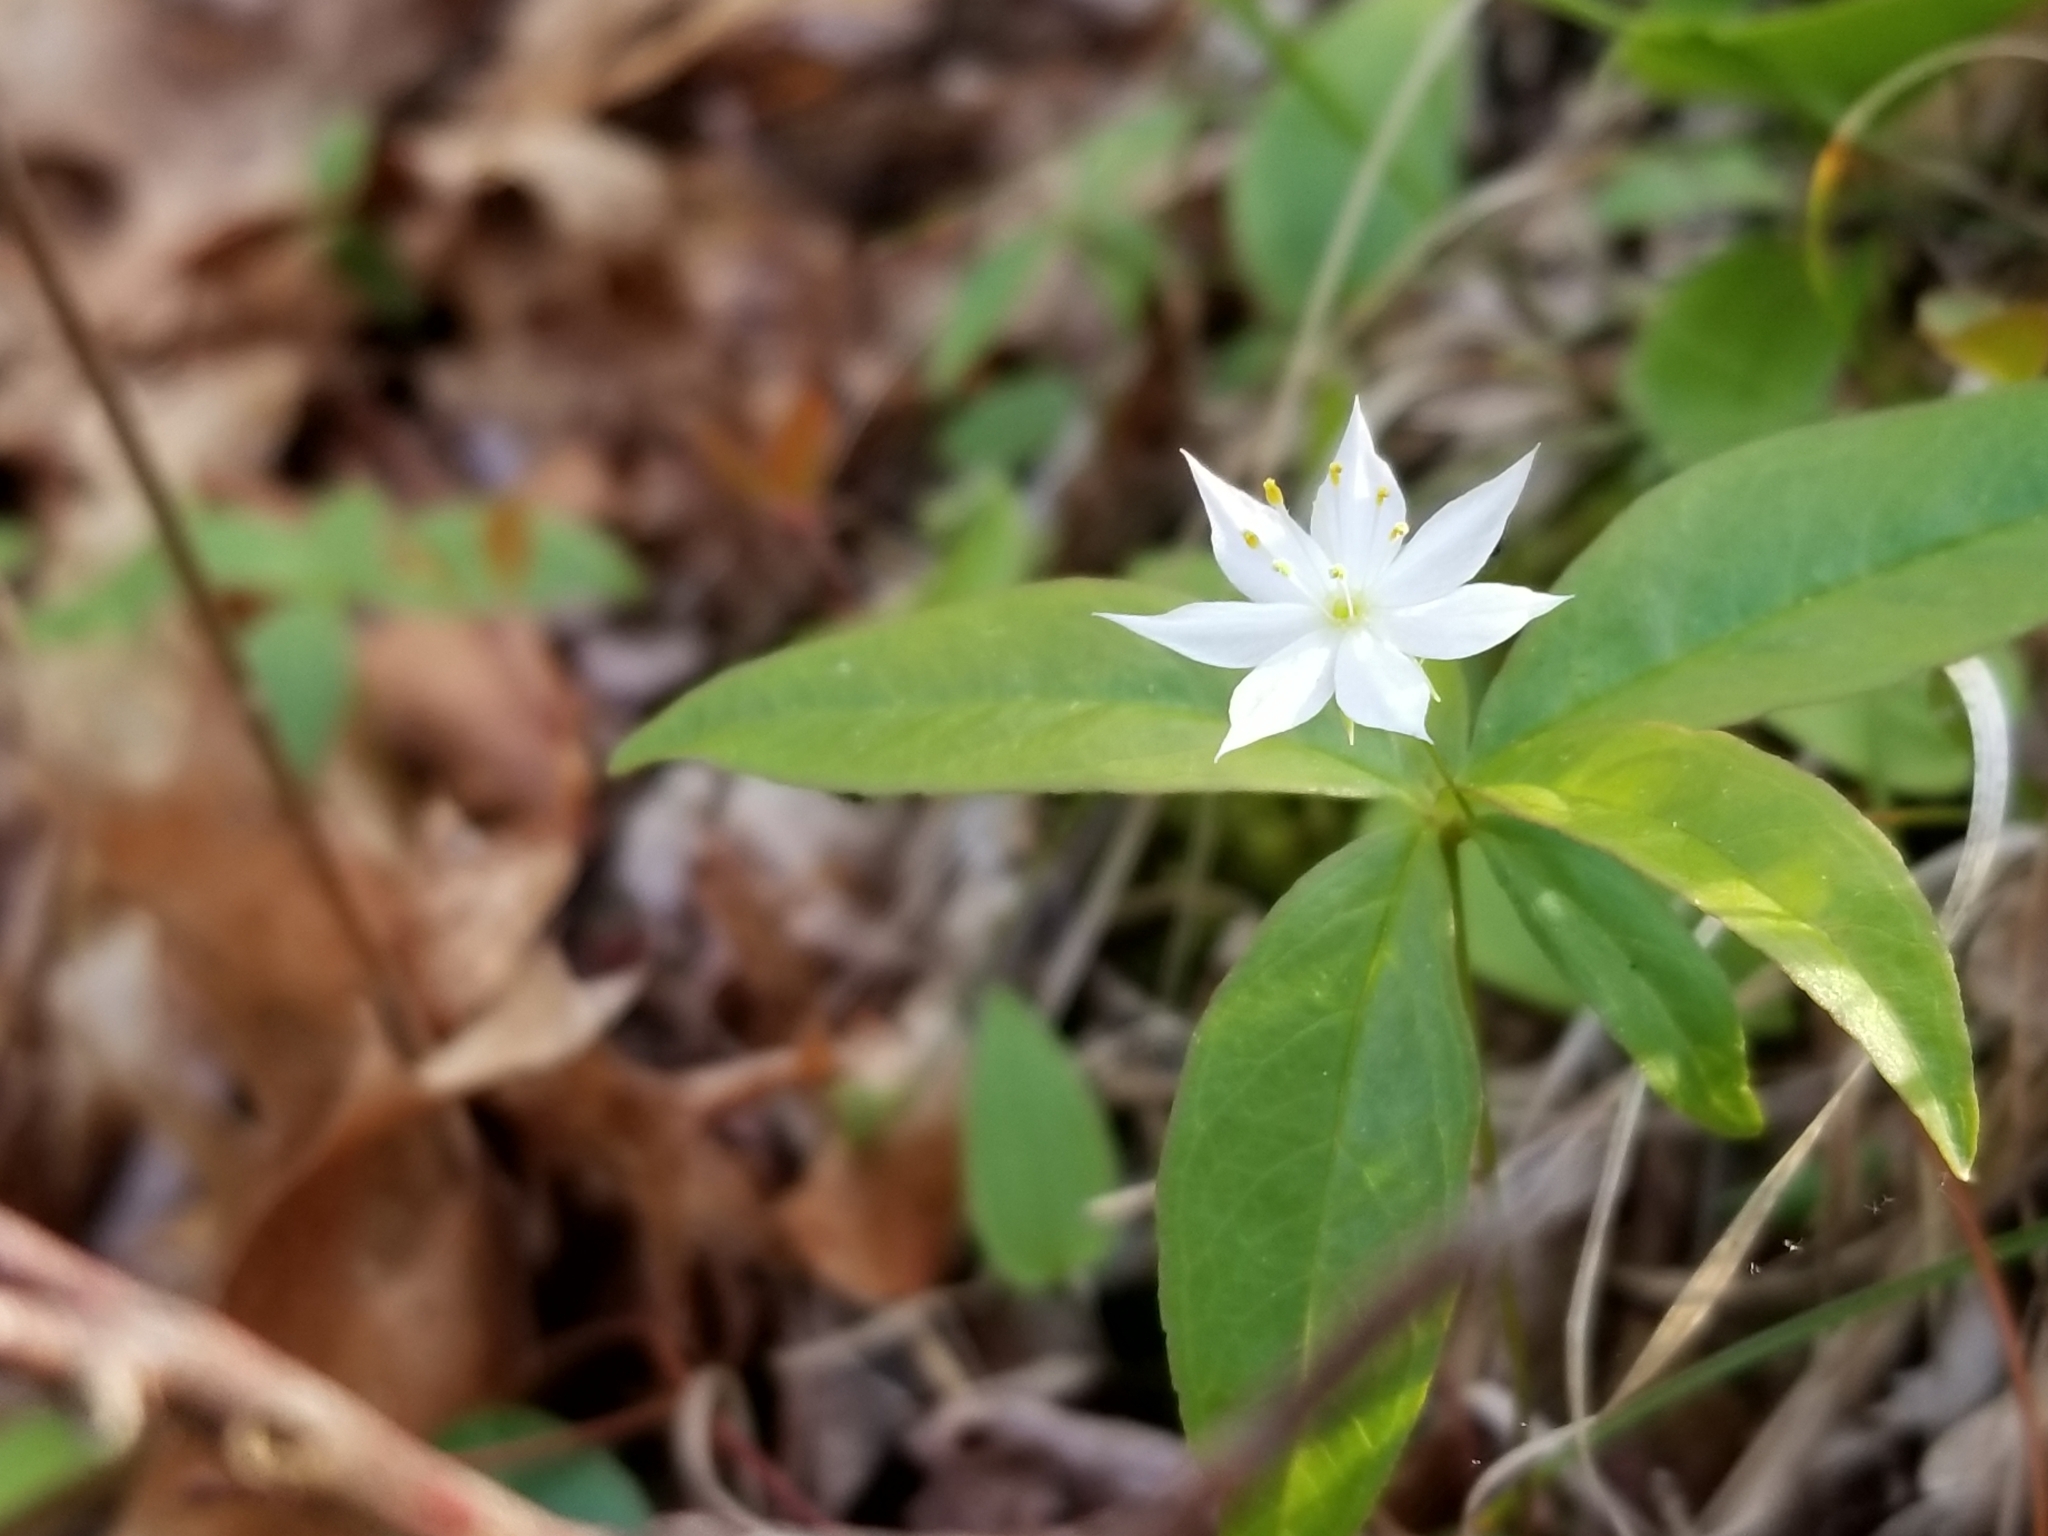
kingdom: Plantae
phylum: Tracheophyta
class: Magnoliopsida
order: Ericales
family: Primulaceae
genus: Lysimachia
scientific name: Lysimachia borealis
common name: American starflower
